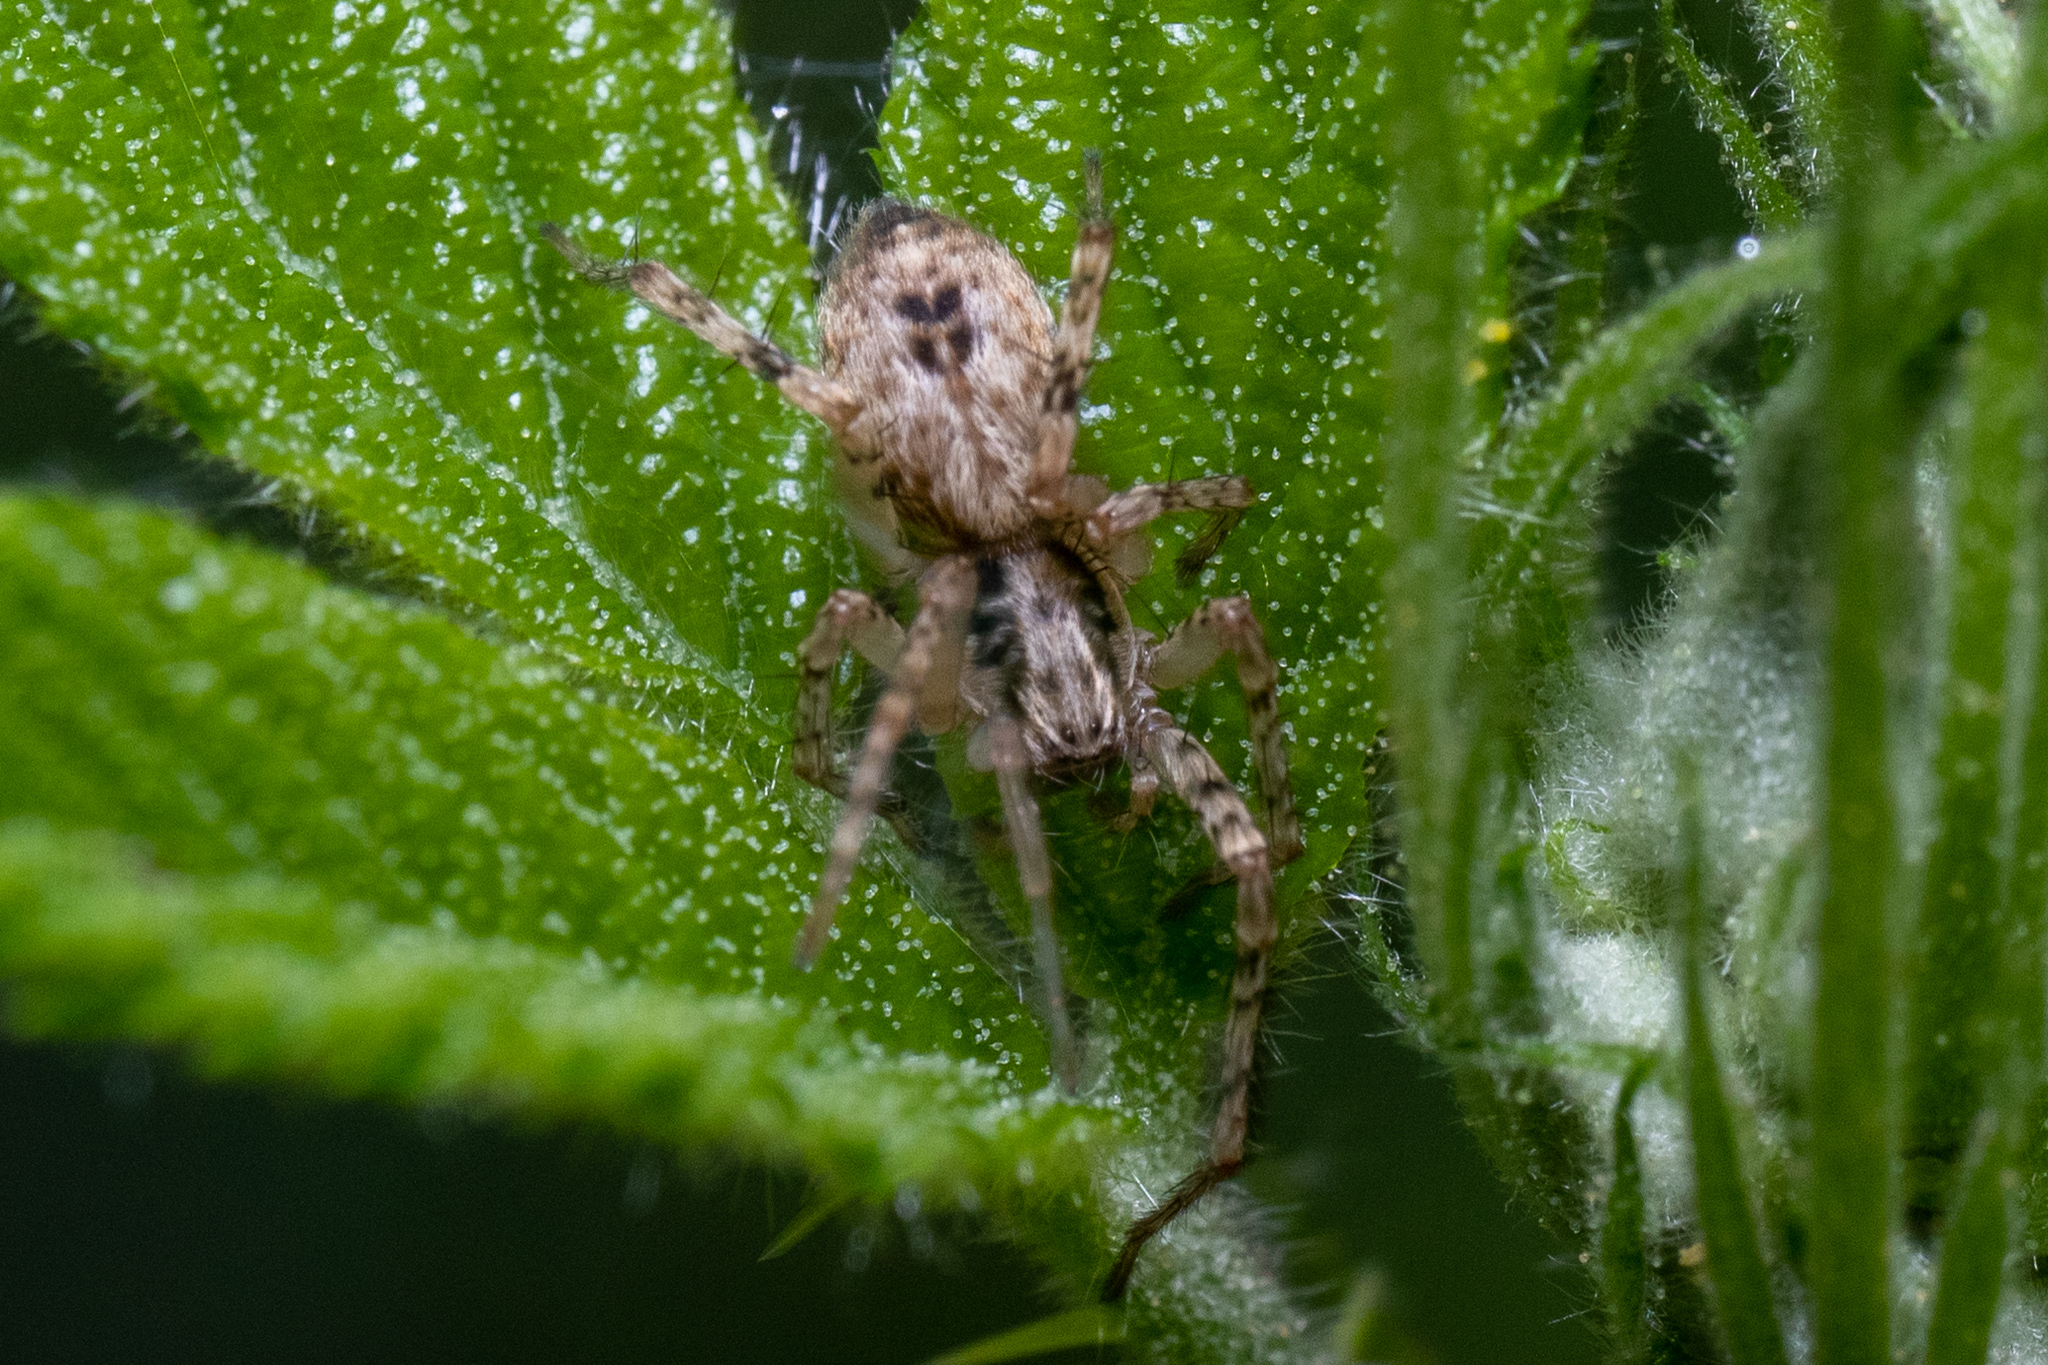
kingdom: Animalia
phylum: Arthropoda
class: Arachnida
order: Araneae
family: Anyphaenidae
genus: Anyphaena
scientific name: Anyphaena accentuata
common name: Buzzing spider
